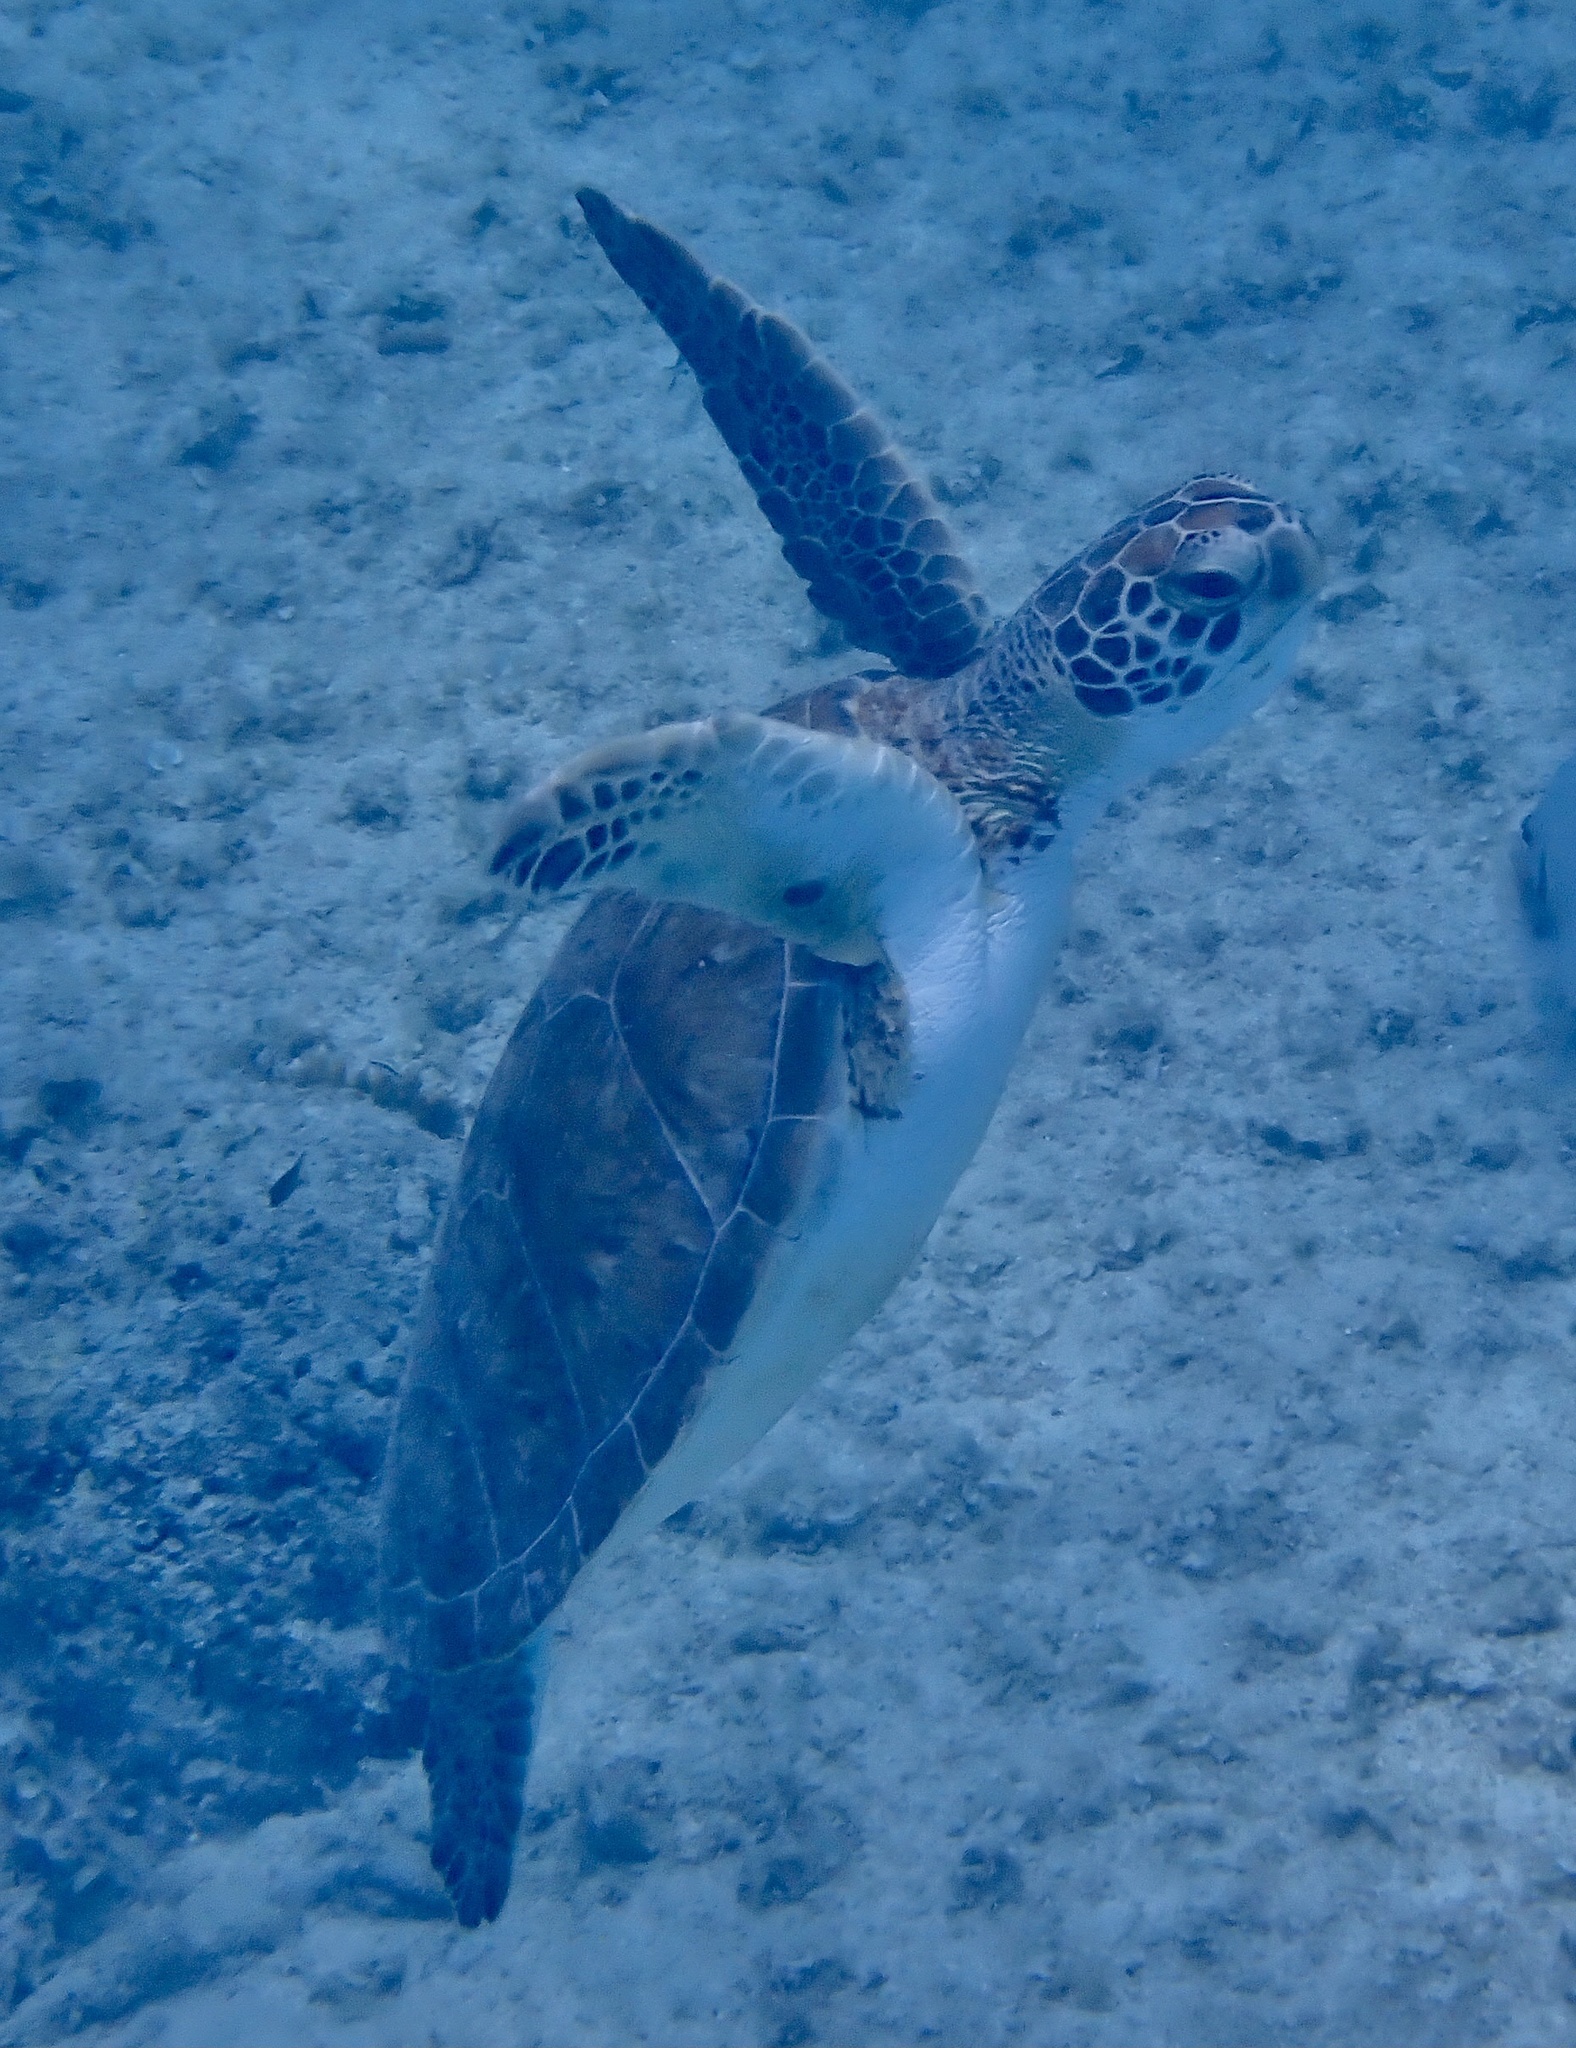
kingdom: Animalia
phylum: Chordata
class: Testudines
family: Cheloniidae
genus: Chelonia
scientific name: Chelonia mydas
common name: Green turtle
